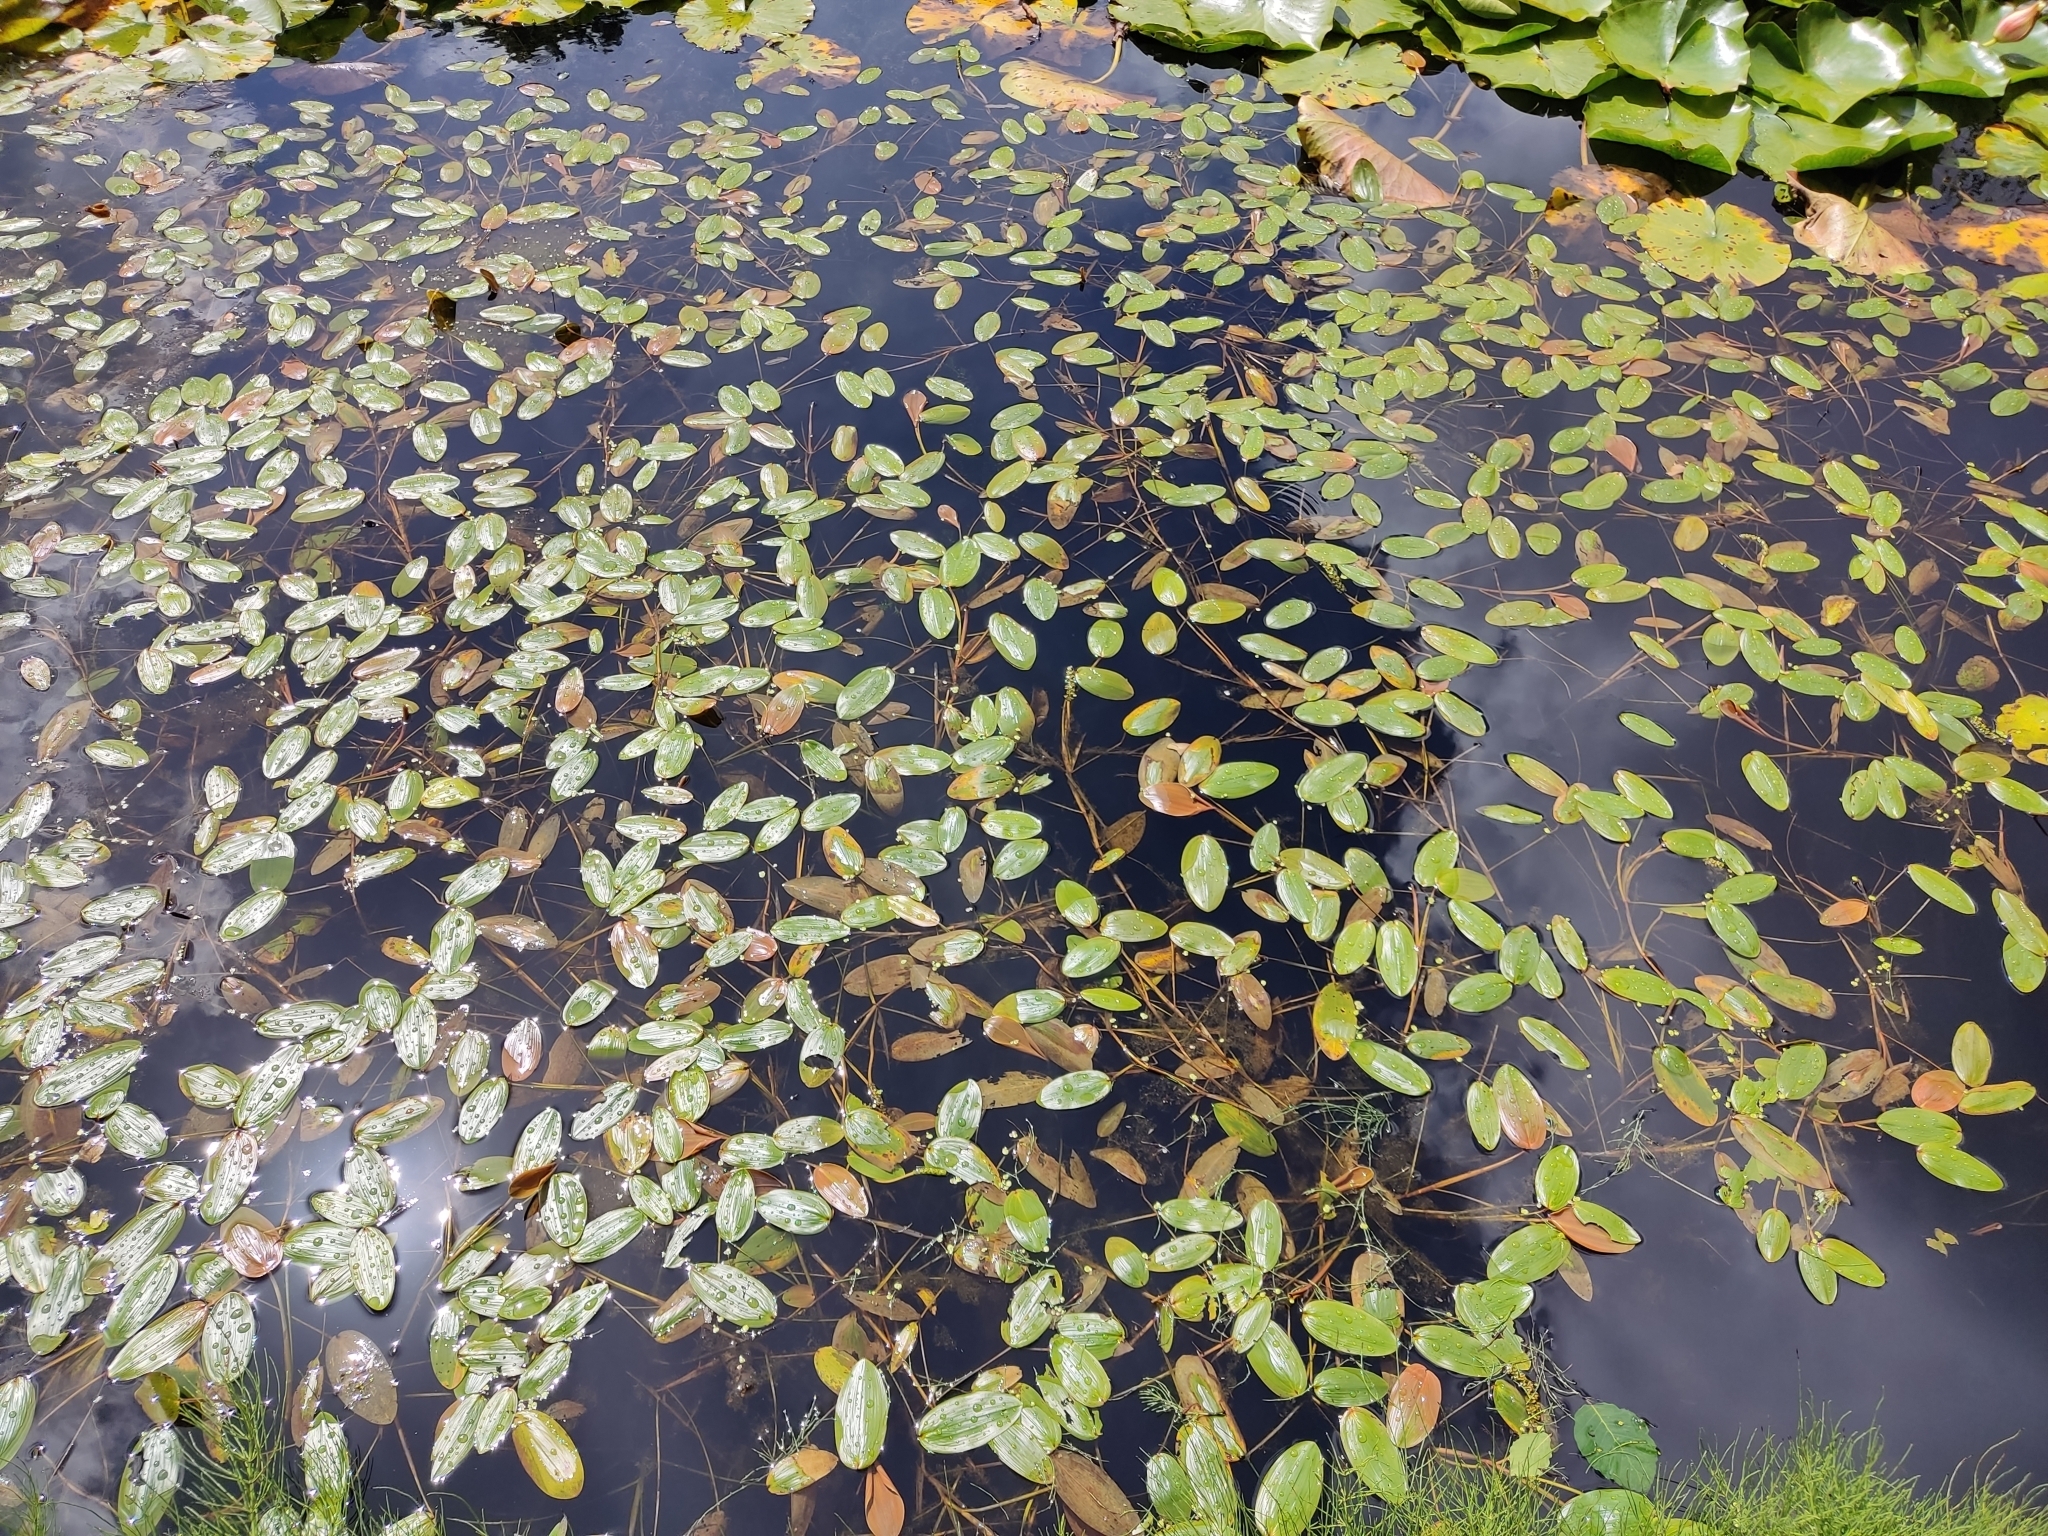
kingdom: Plantae
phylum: Tracheophyta
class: Liliopsida
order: Alismatales
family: Potamogetonaceae
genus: Potamogeton
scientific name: Potamogeton natans
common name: Broad-leaved pondweed
